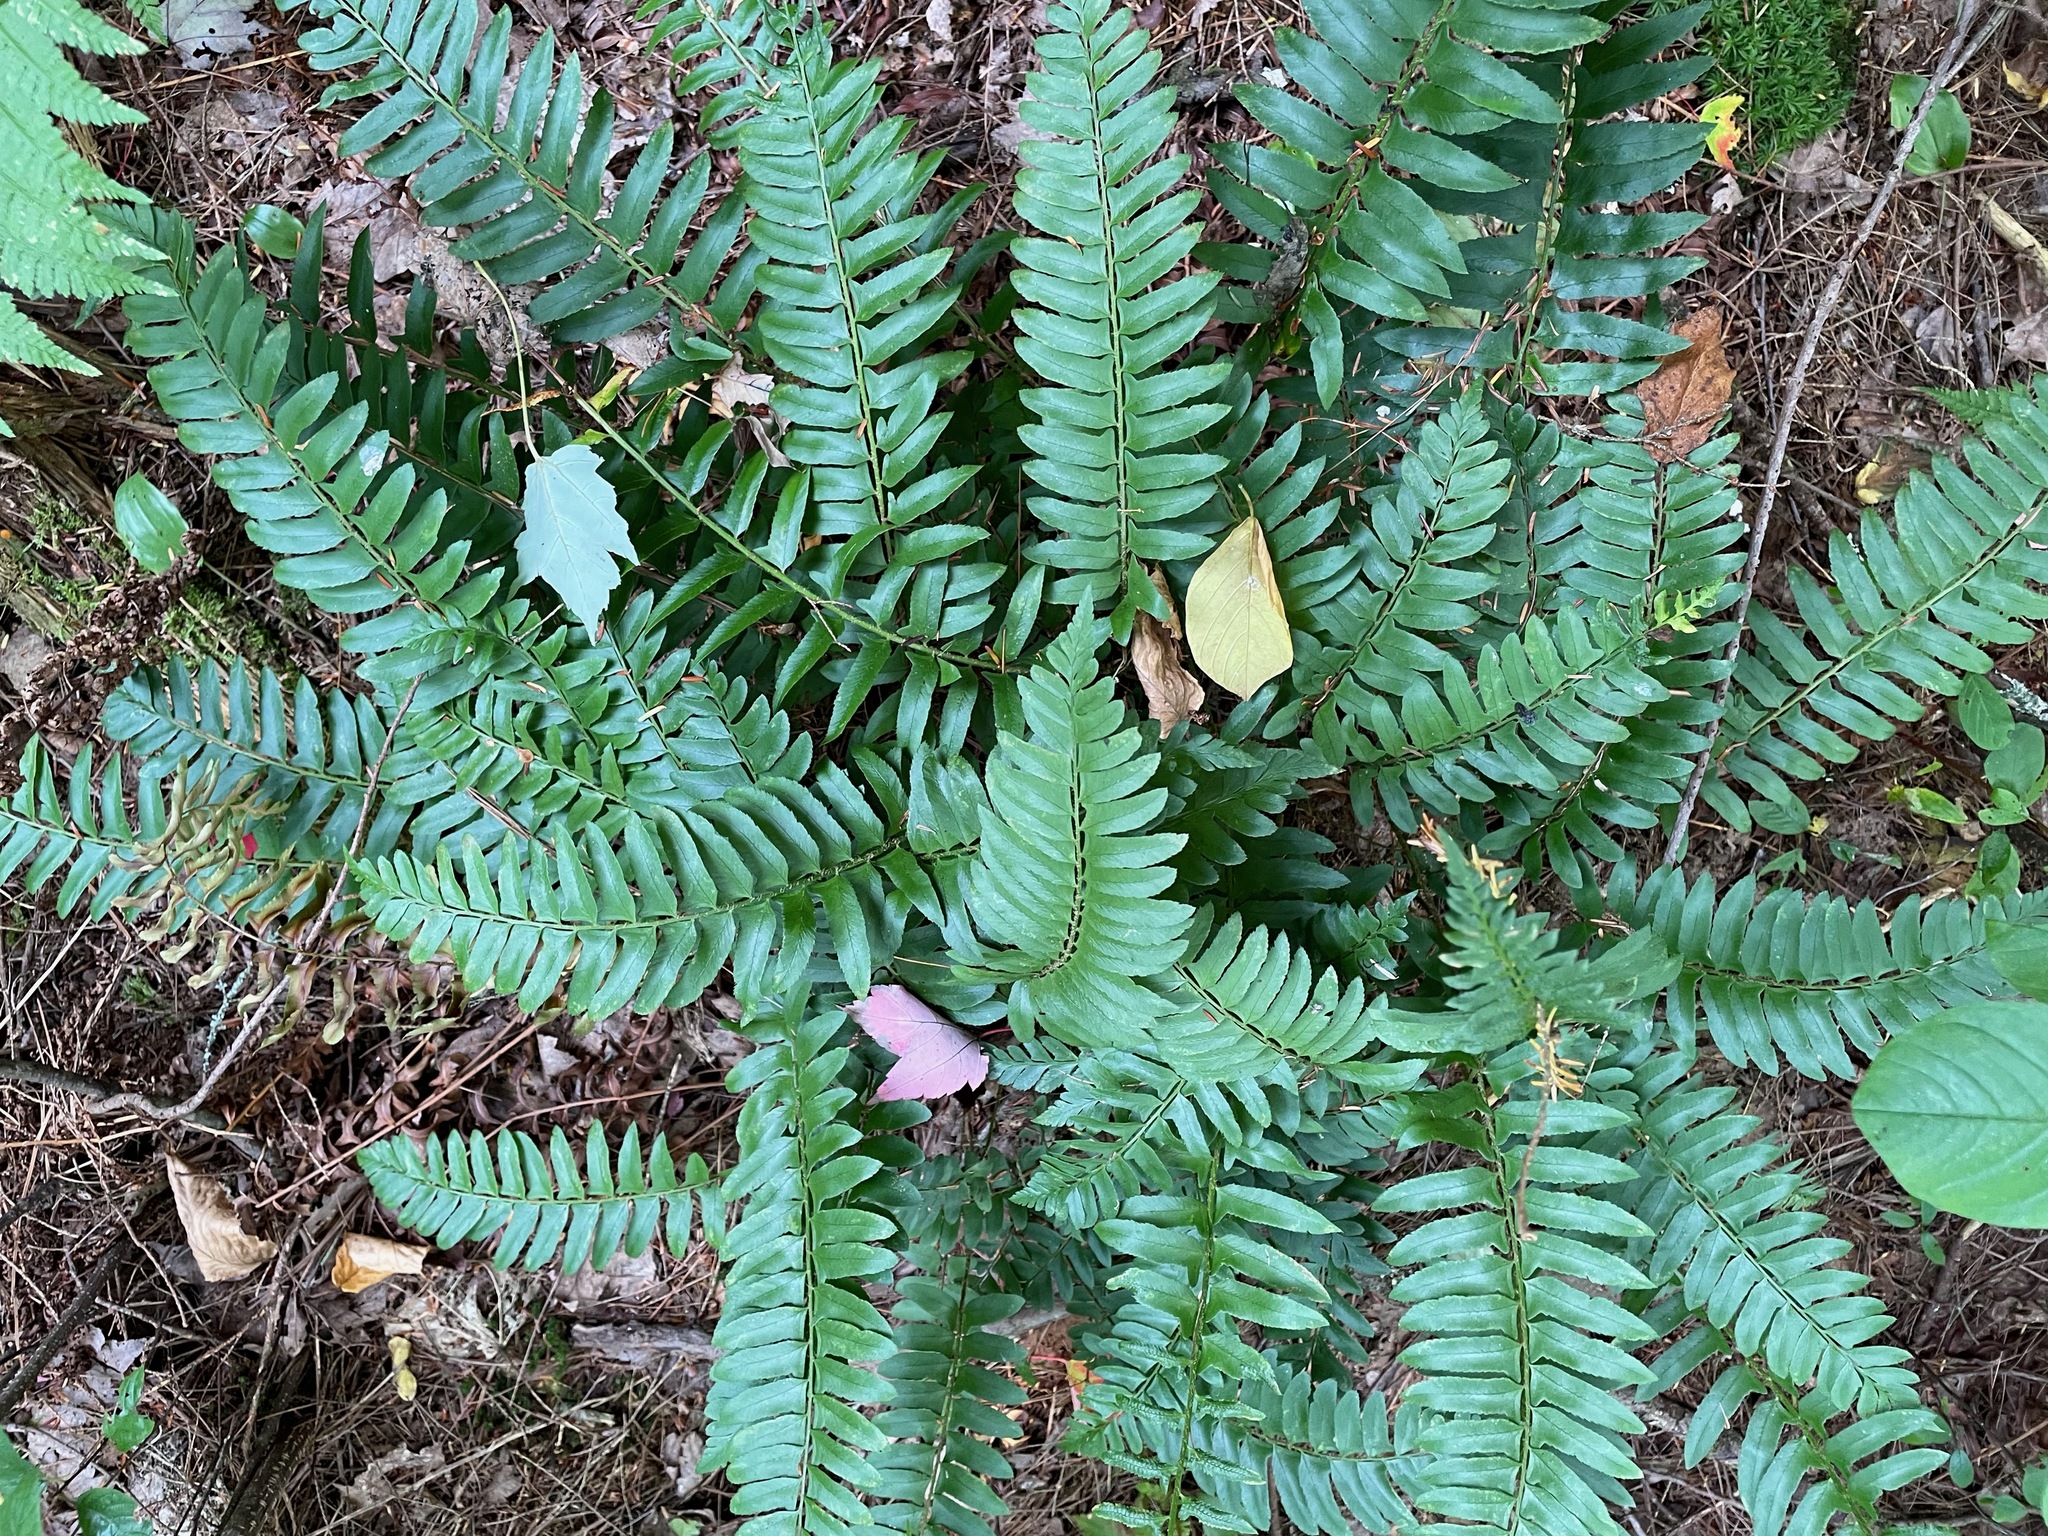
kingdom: Plantae
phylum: Tracheophyta
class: Polypodiopsida
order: Polypodiales
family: Dryopteridaceae
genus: Polystichum
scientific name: Polystichum acrostichoides
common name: Christmas fern
